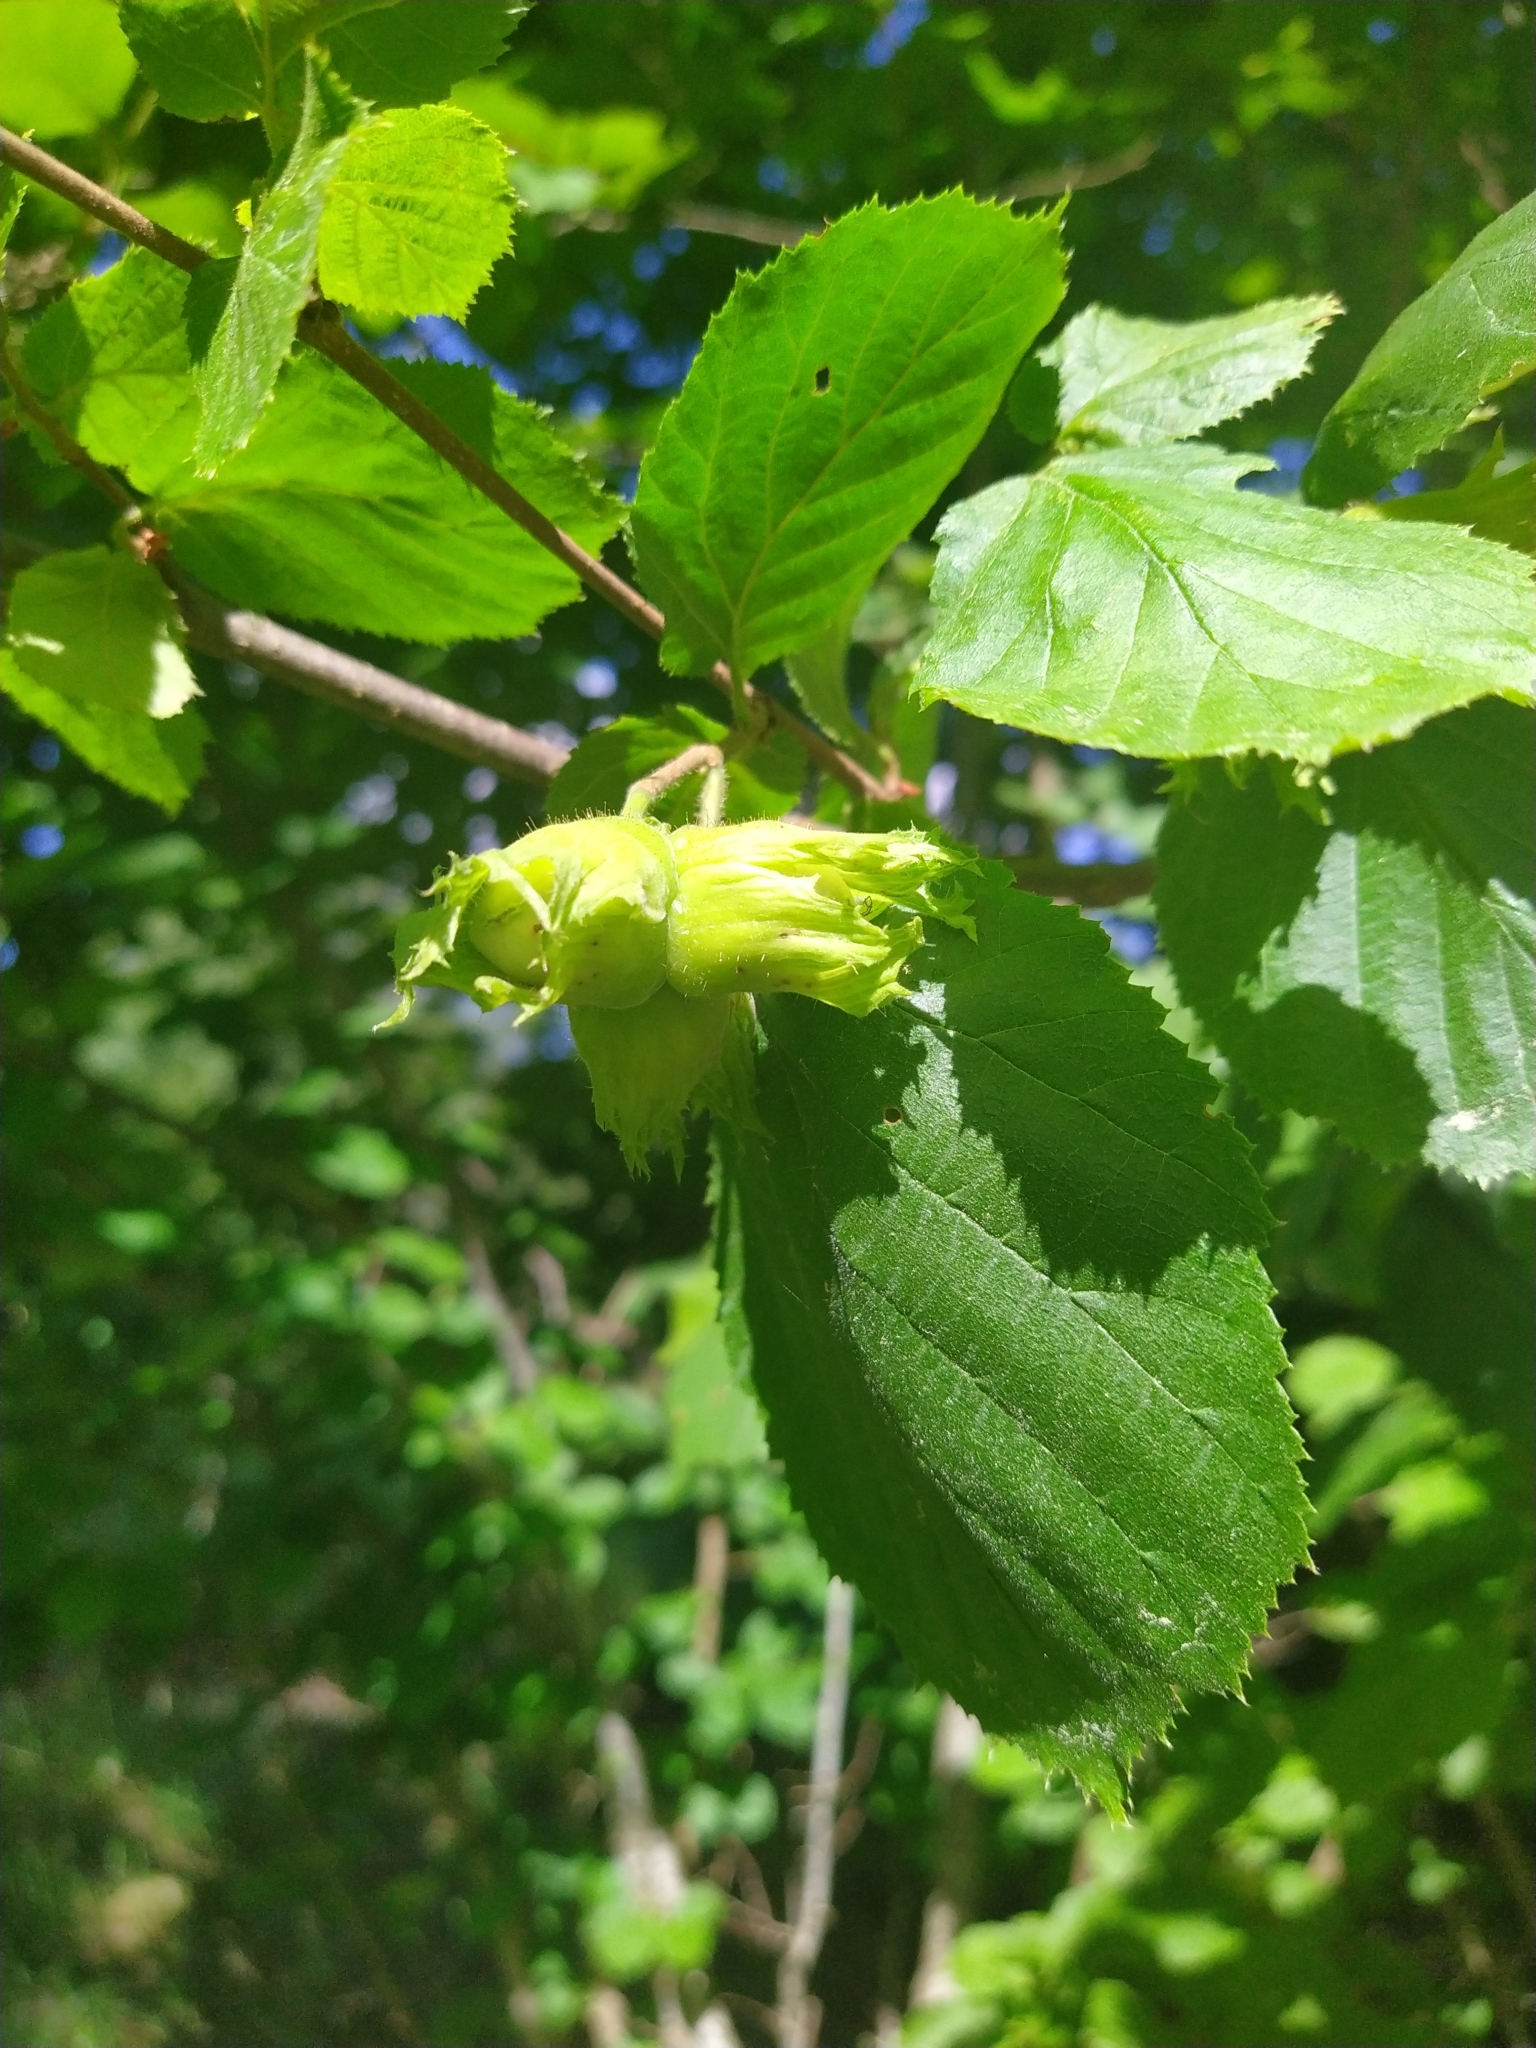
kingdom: Plantae
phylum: Tracheophyta
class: Magnoliopsida
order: Fagales
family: Betulaceae
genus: Corylus
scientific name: Corylus avellana
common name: European hazel
